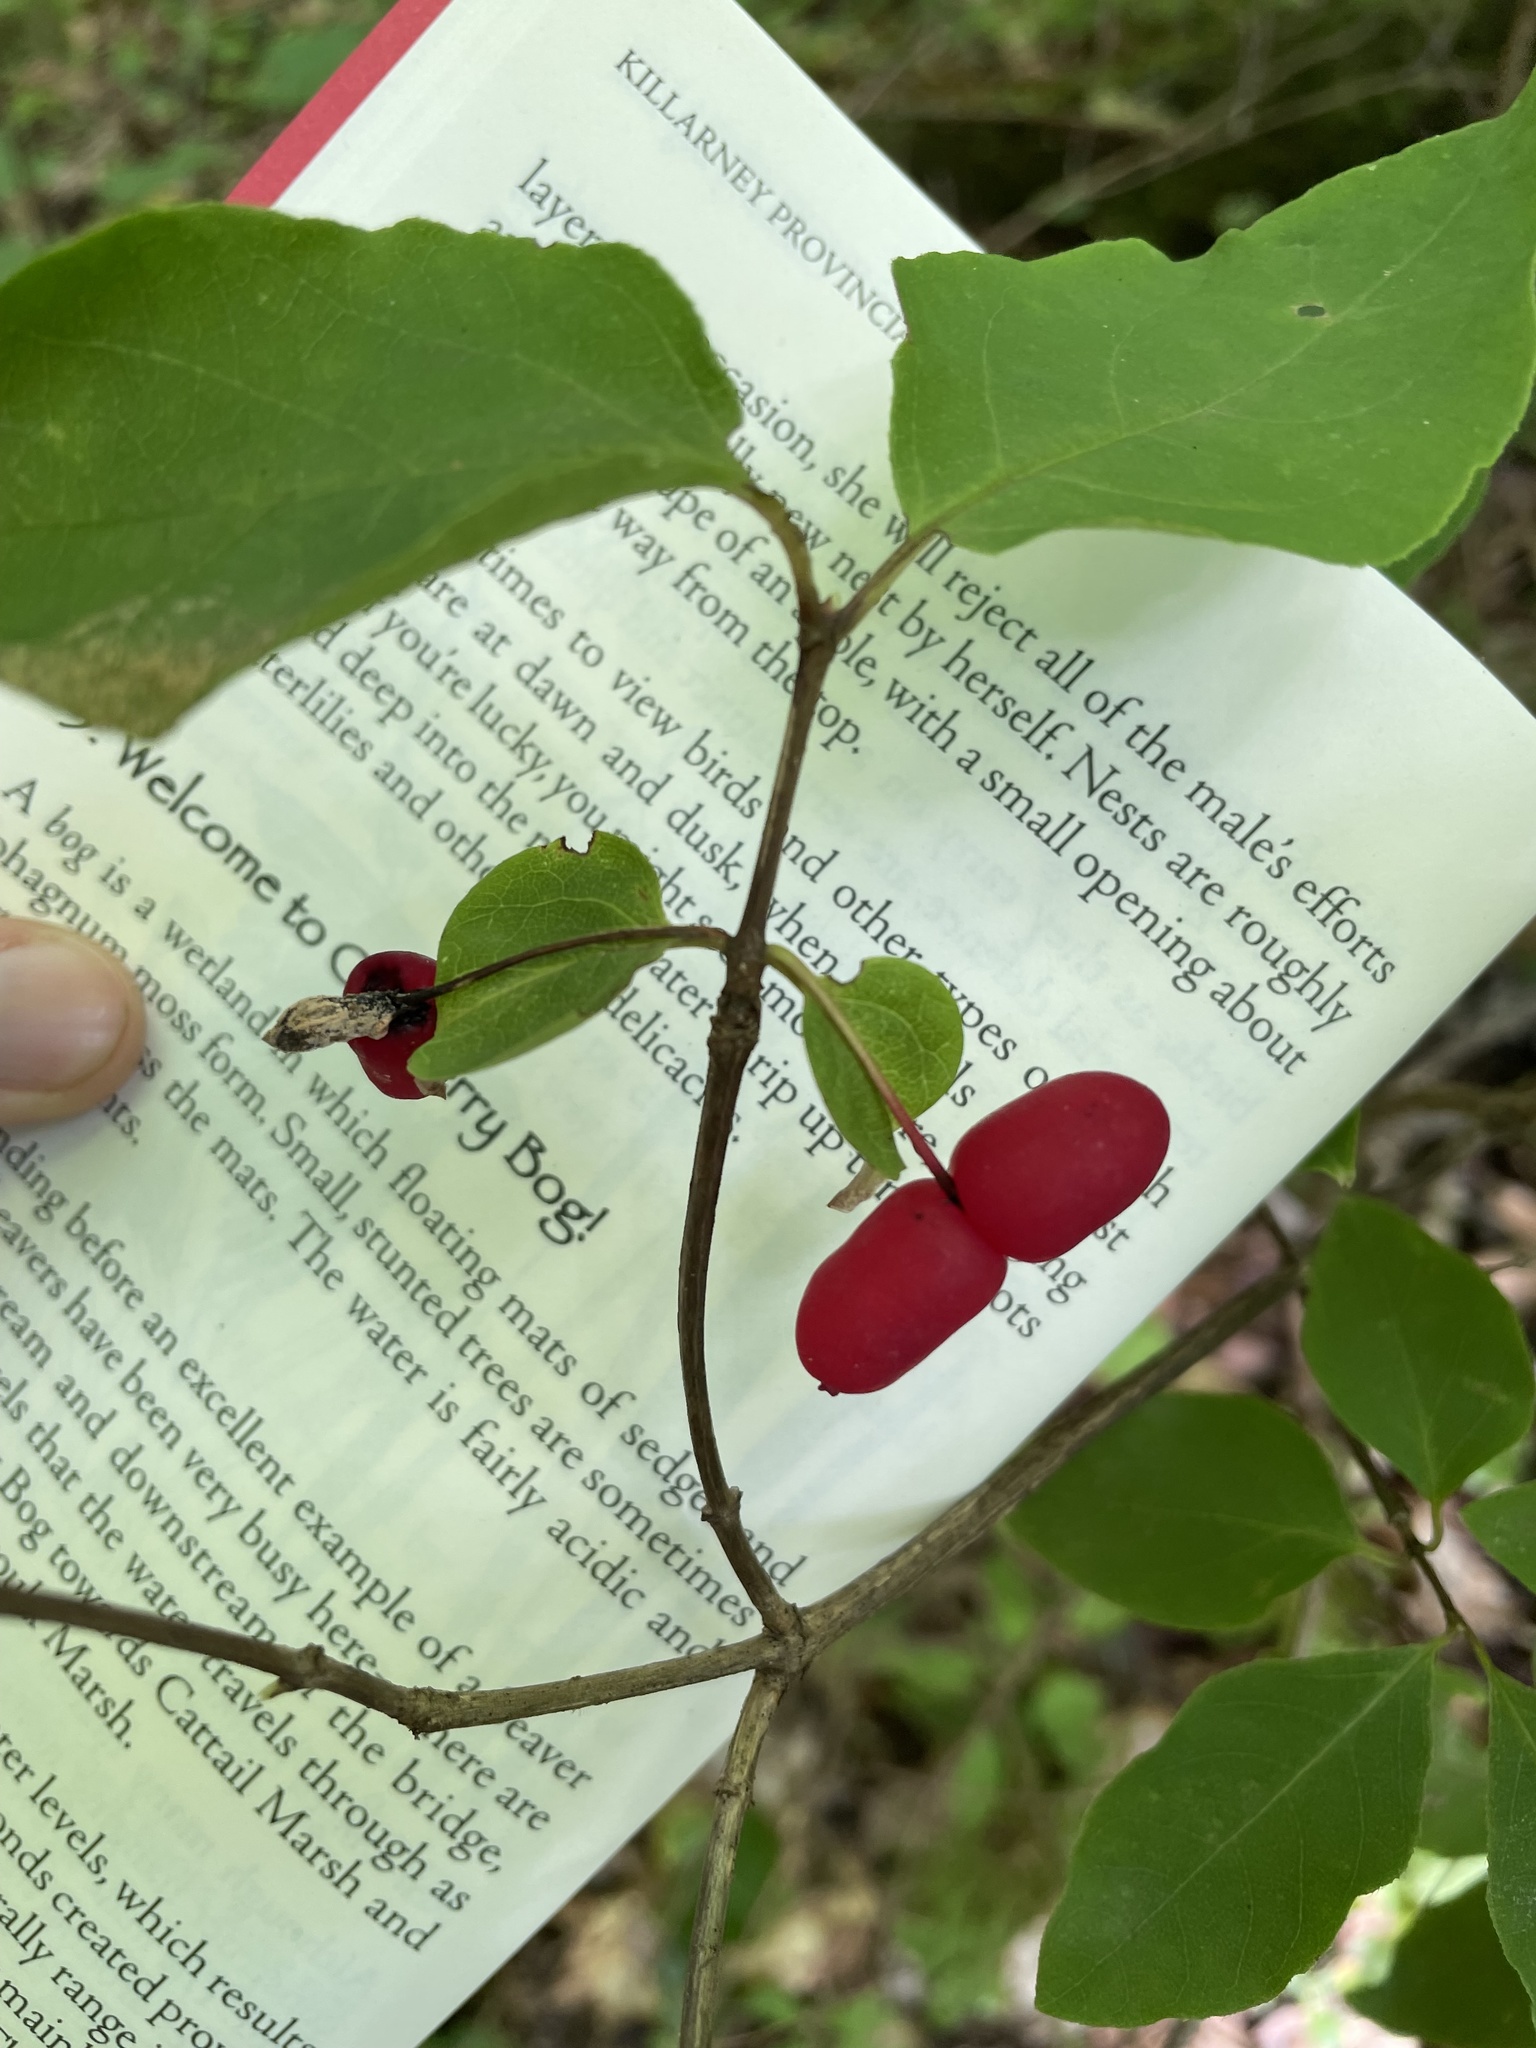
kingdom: Plantae
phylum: Tracheophyta
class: Magnoliopsida
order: Dipsacales
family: Caprifoliaceae
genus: Lonicera
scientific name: Lonicera canadensis
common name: American fly-honeysuckle
